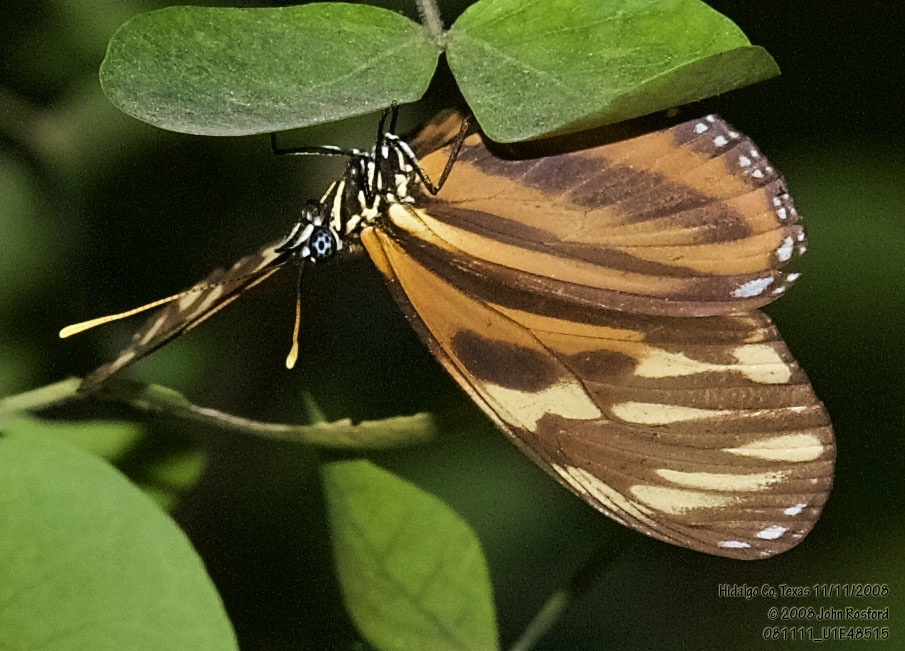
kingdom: Animalia
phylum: Arthropoda
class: Insecta
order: Lepidoptera
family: Nymphalidae
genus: Eueides
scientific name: Eueides isabella
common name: Isabella's longwing
